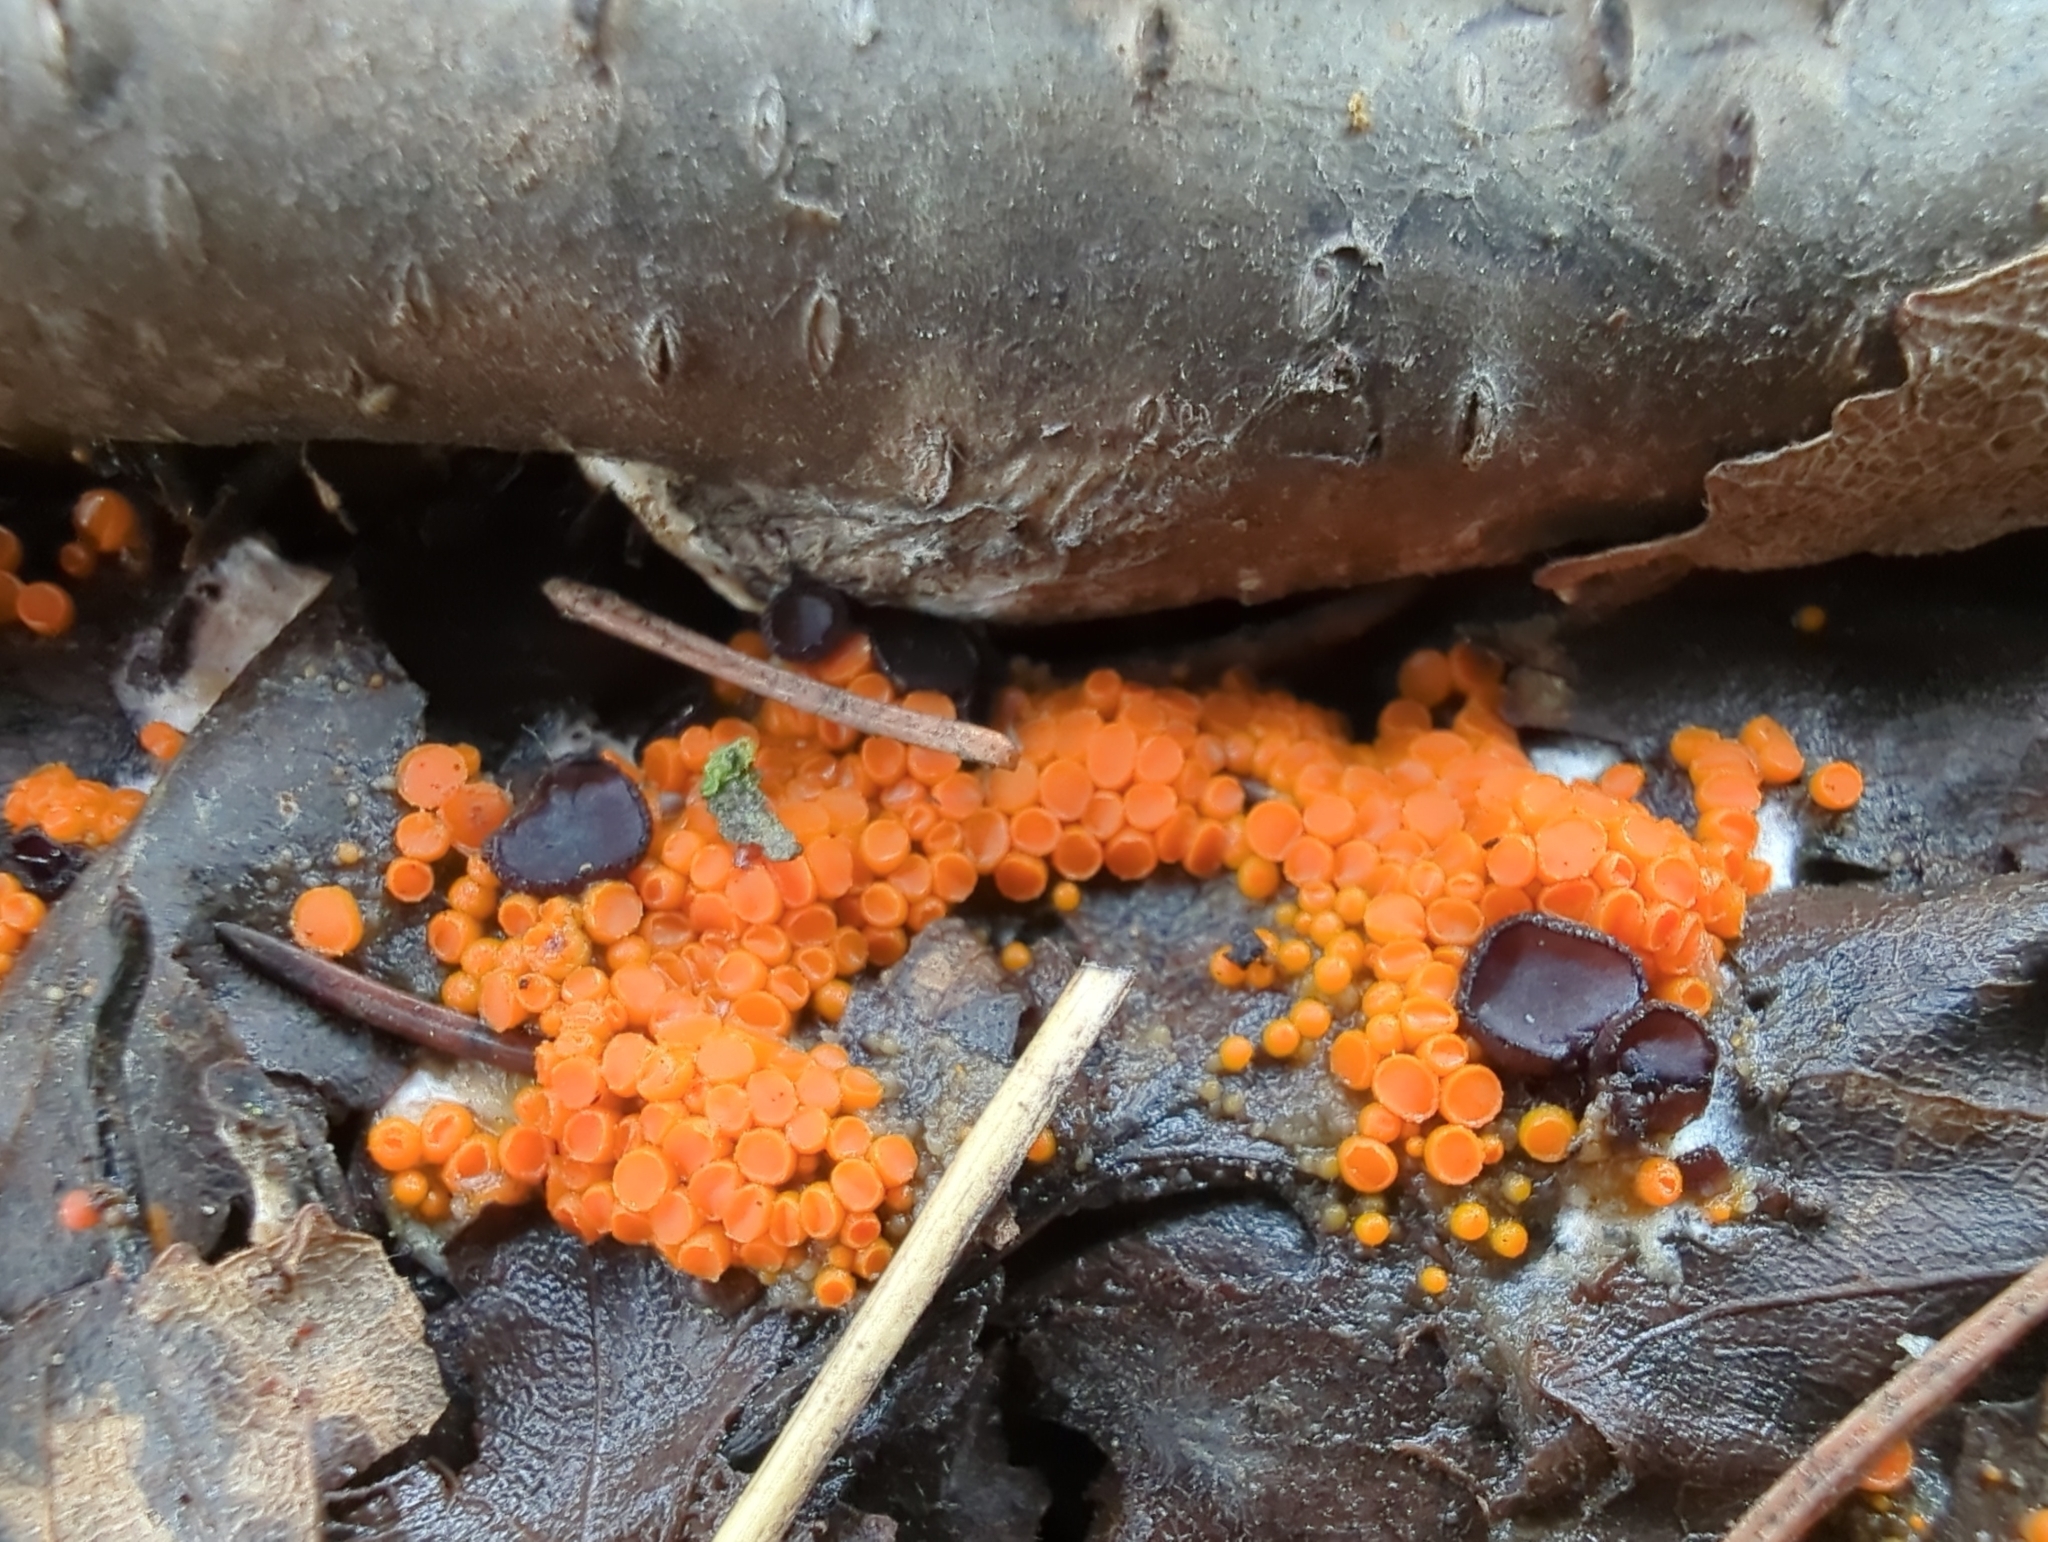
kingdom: Fungi
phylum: Ascomycota
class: Pezizomycetes
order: Pezizales
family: Pyronemataceae
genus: Byssonectria
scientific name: Byssonectria terrestris
